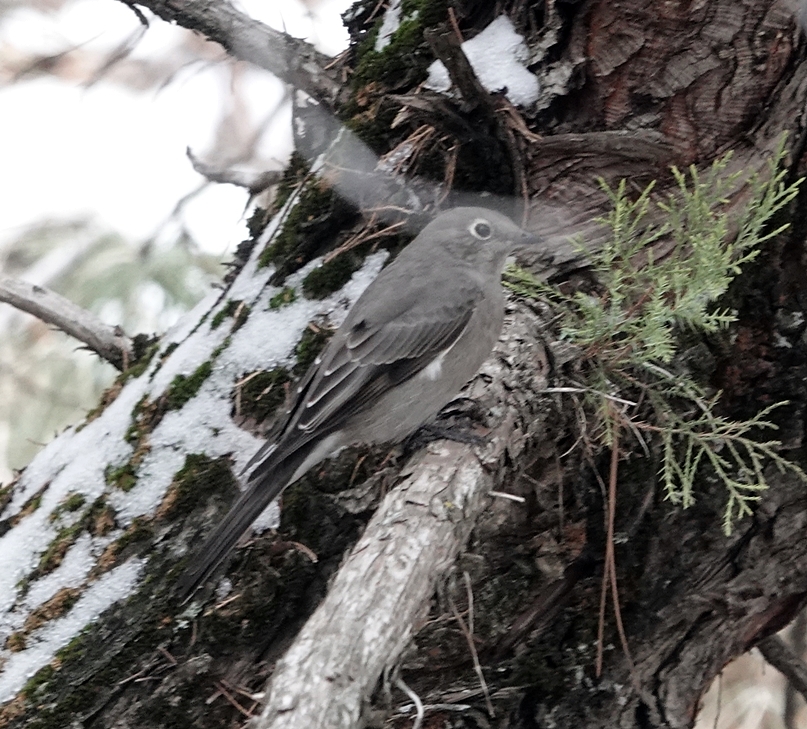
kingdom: Animalia
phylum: Chordata
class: Aves
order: Passeriformes
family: Turdidae
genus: Myadestes
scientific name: Myadestes townsendi
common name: Townsend's solitaire
